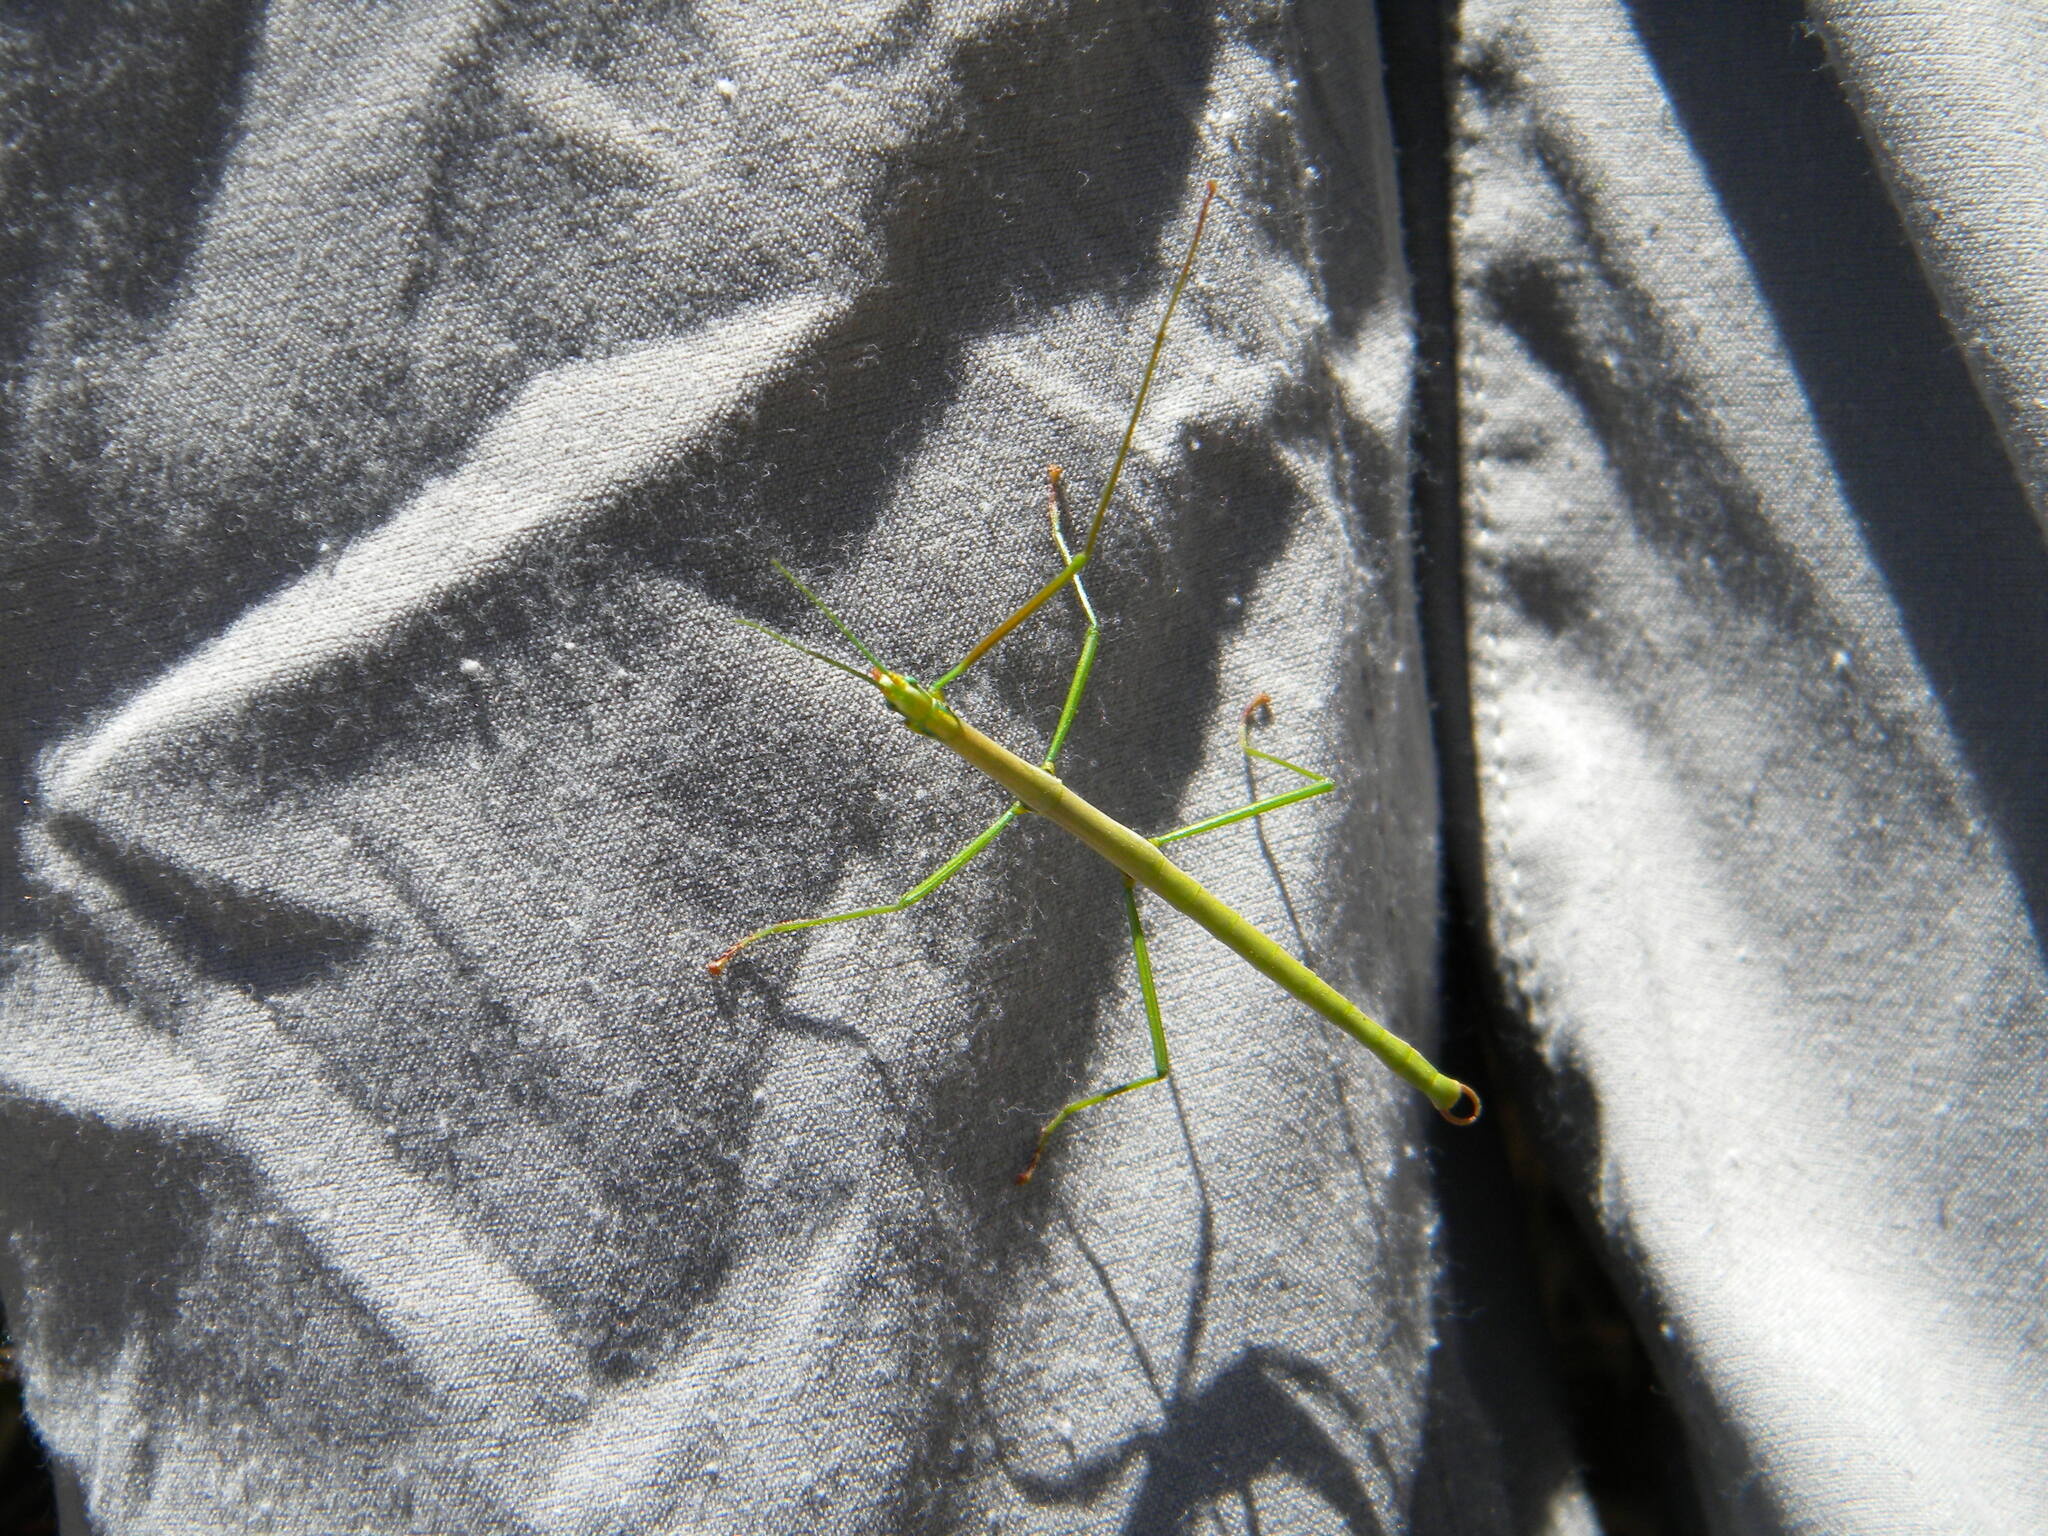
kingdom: Animalia
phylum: Arthropoda
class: Insecta
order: Phasmida
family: Bacillidae
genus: Macynia
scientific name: Macynia labiata
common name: Thunberg's stick insect
